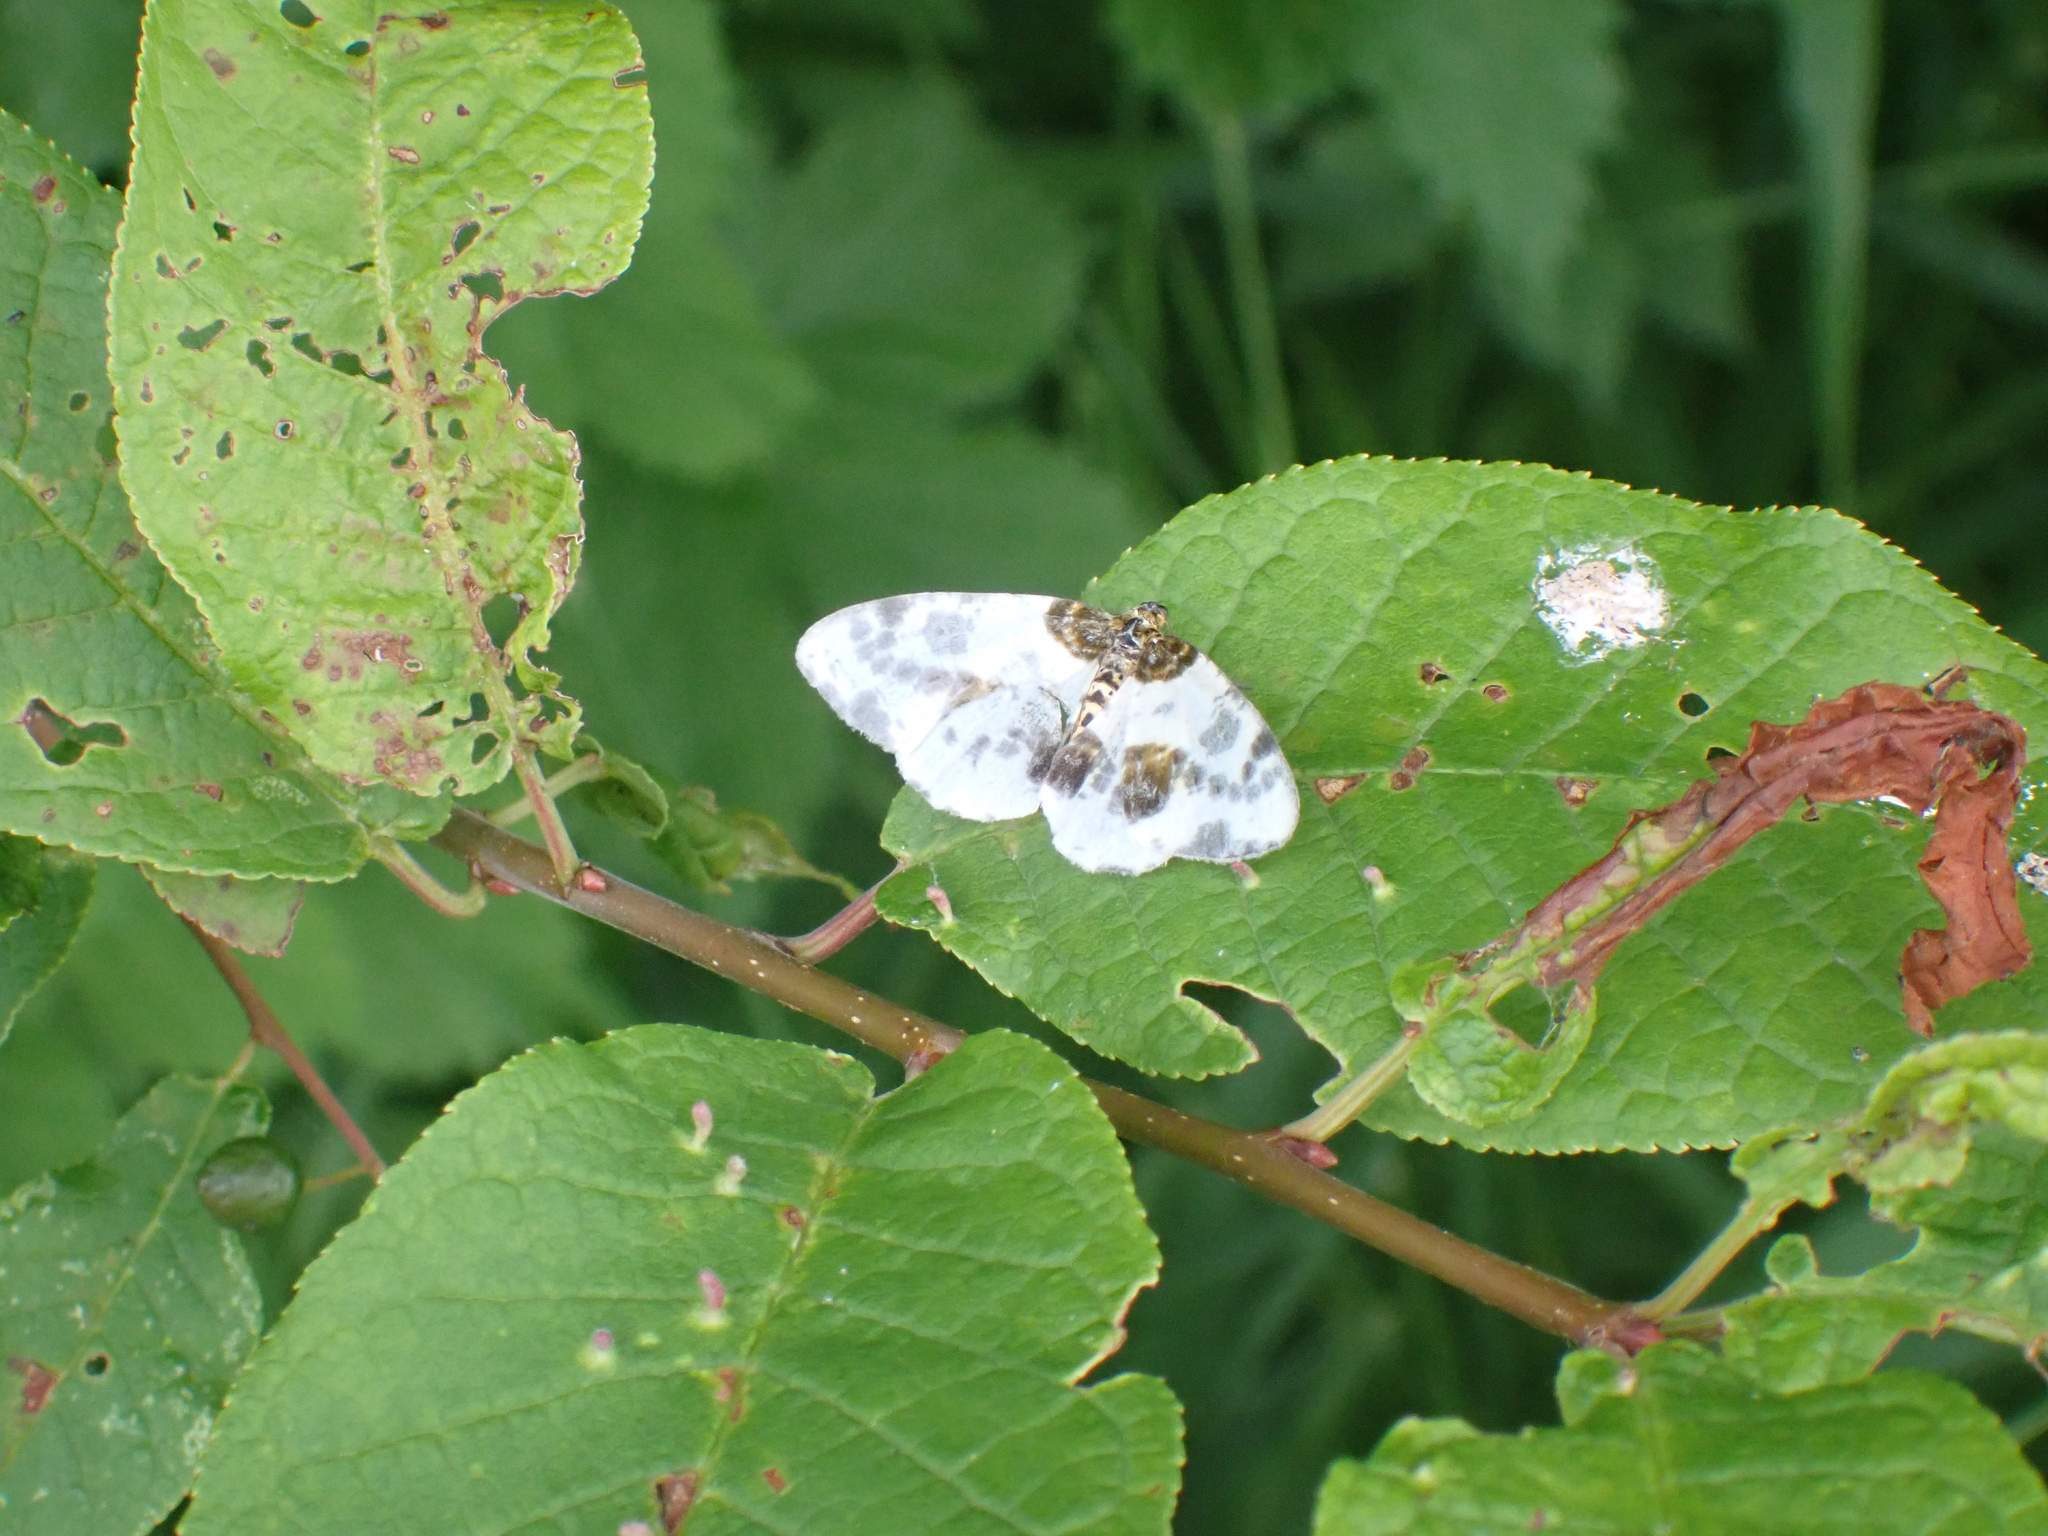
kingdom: Animalia
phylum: Arthropoda
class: Insecta
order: Lepidoptera
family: Geometridae
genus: Abraxas
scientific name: Abraxas sylvata
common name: Clouded magpie
